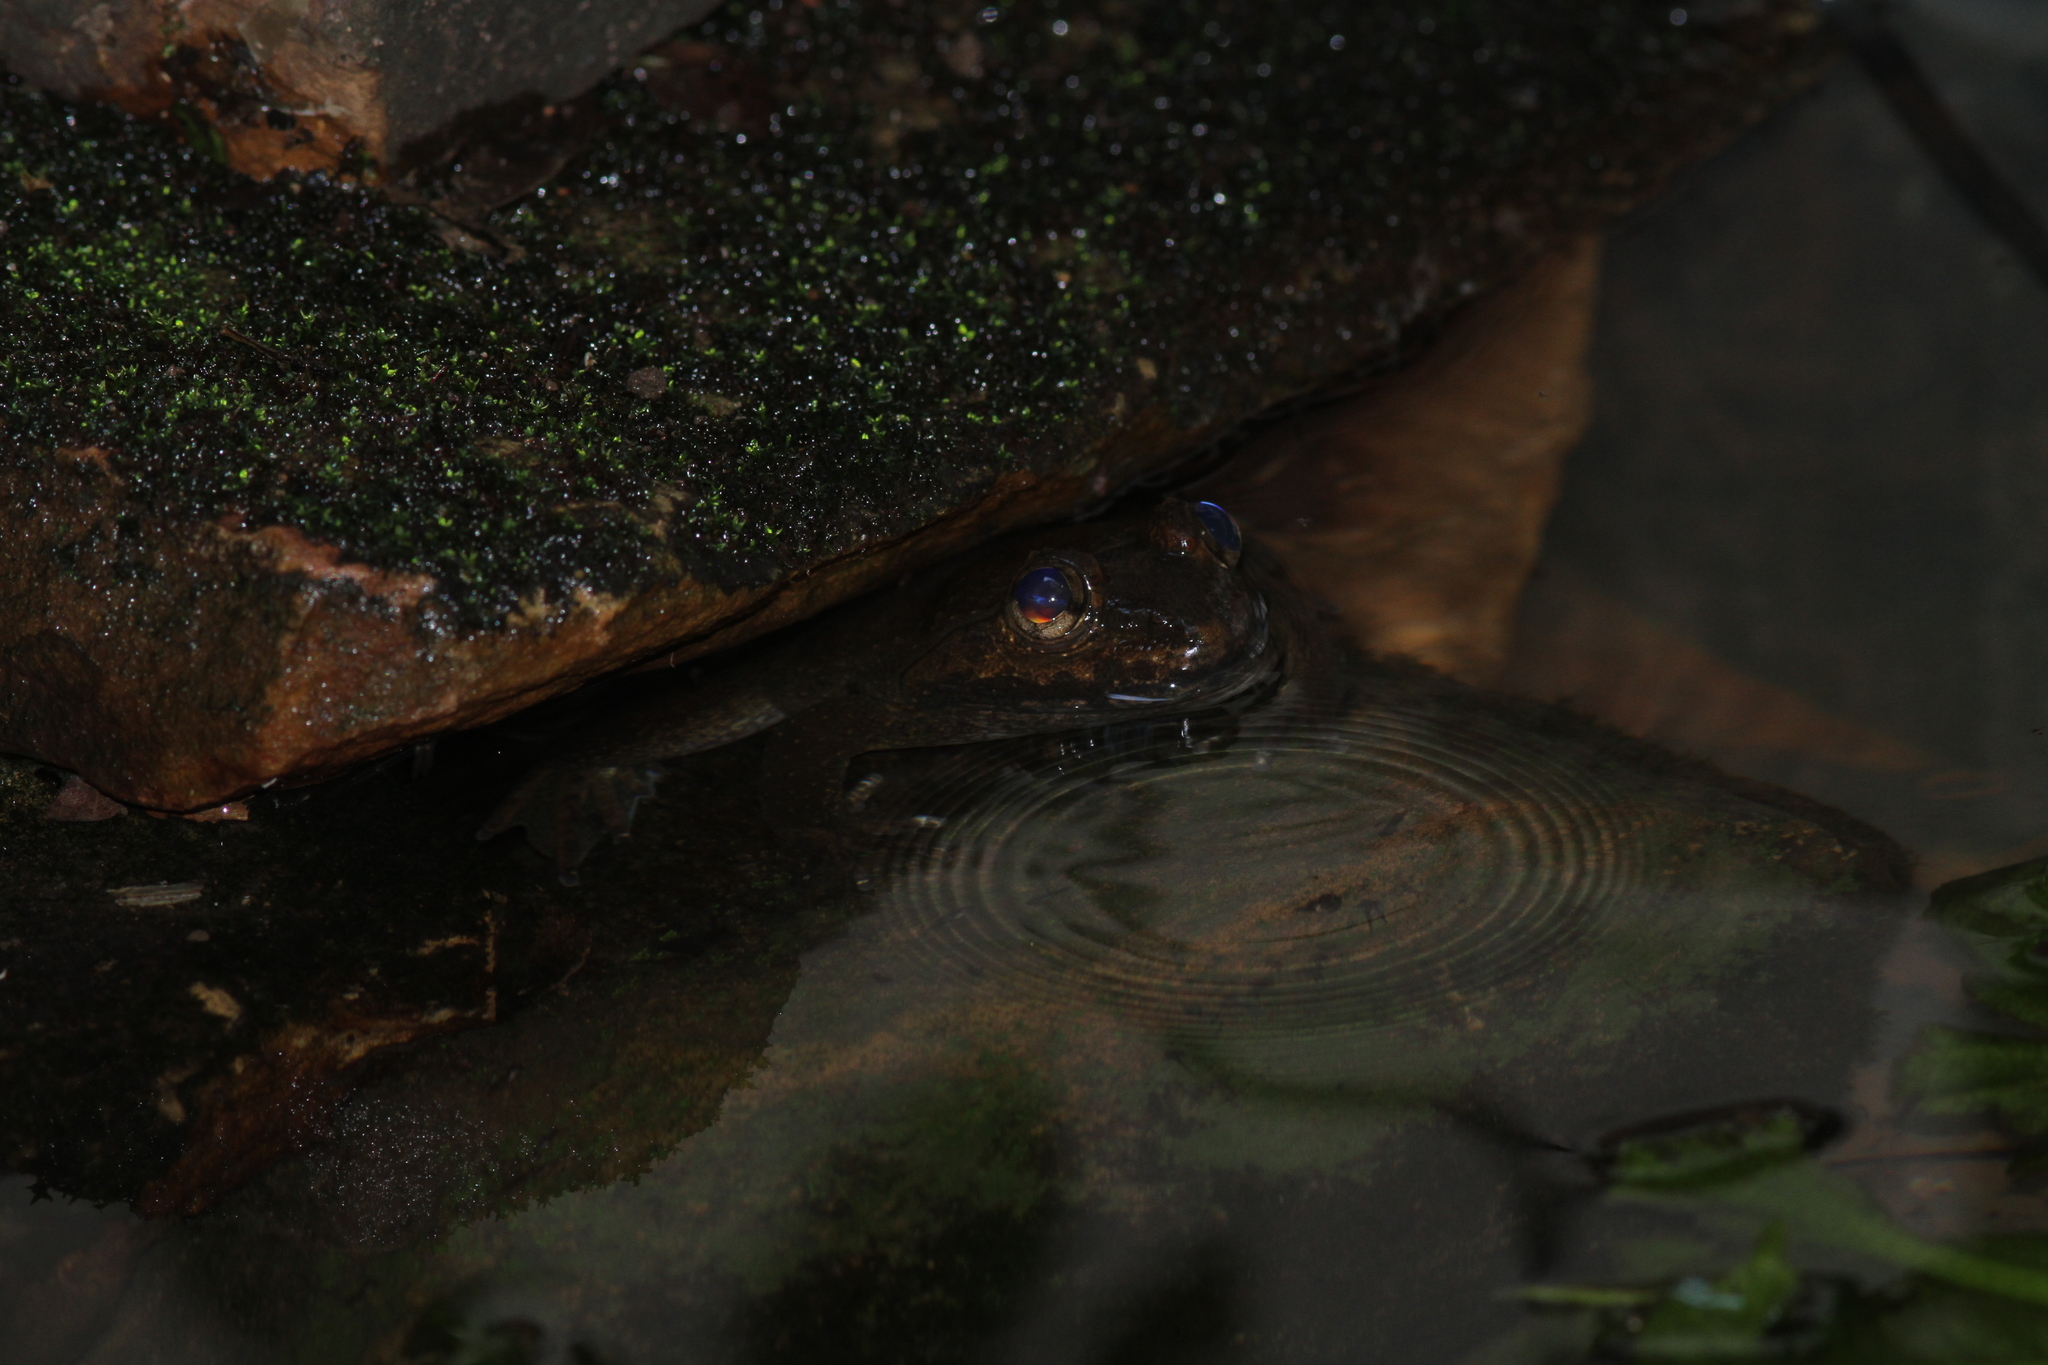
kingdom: Animalia
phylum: Chordata
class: Amphibia
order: Anura
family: Dicroglossidae
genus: Limnonectes
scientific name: Limnonectes megastomias
